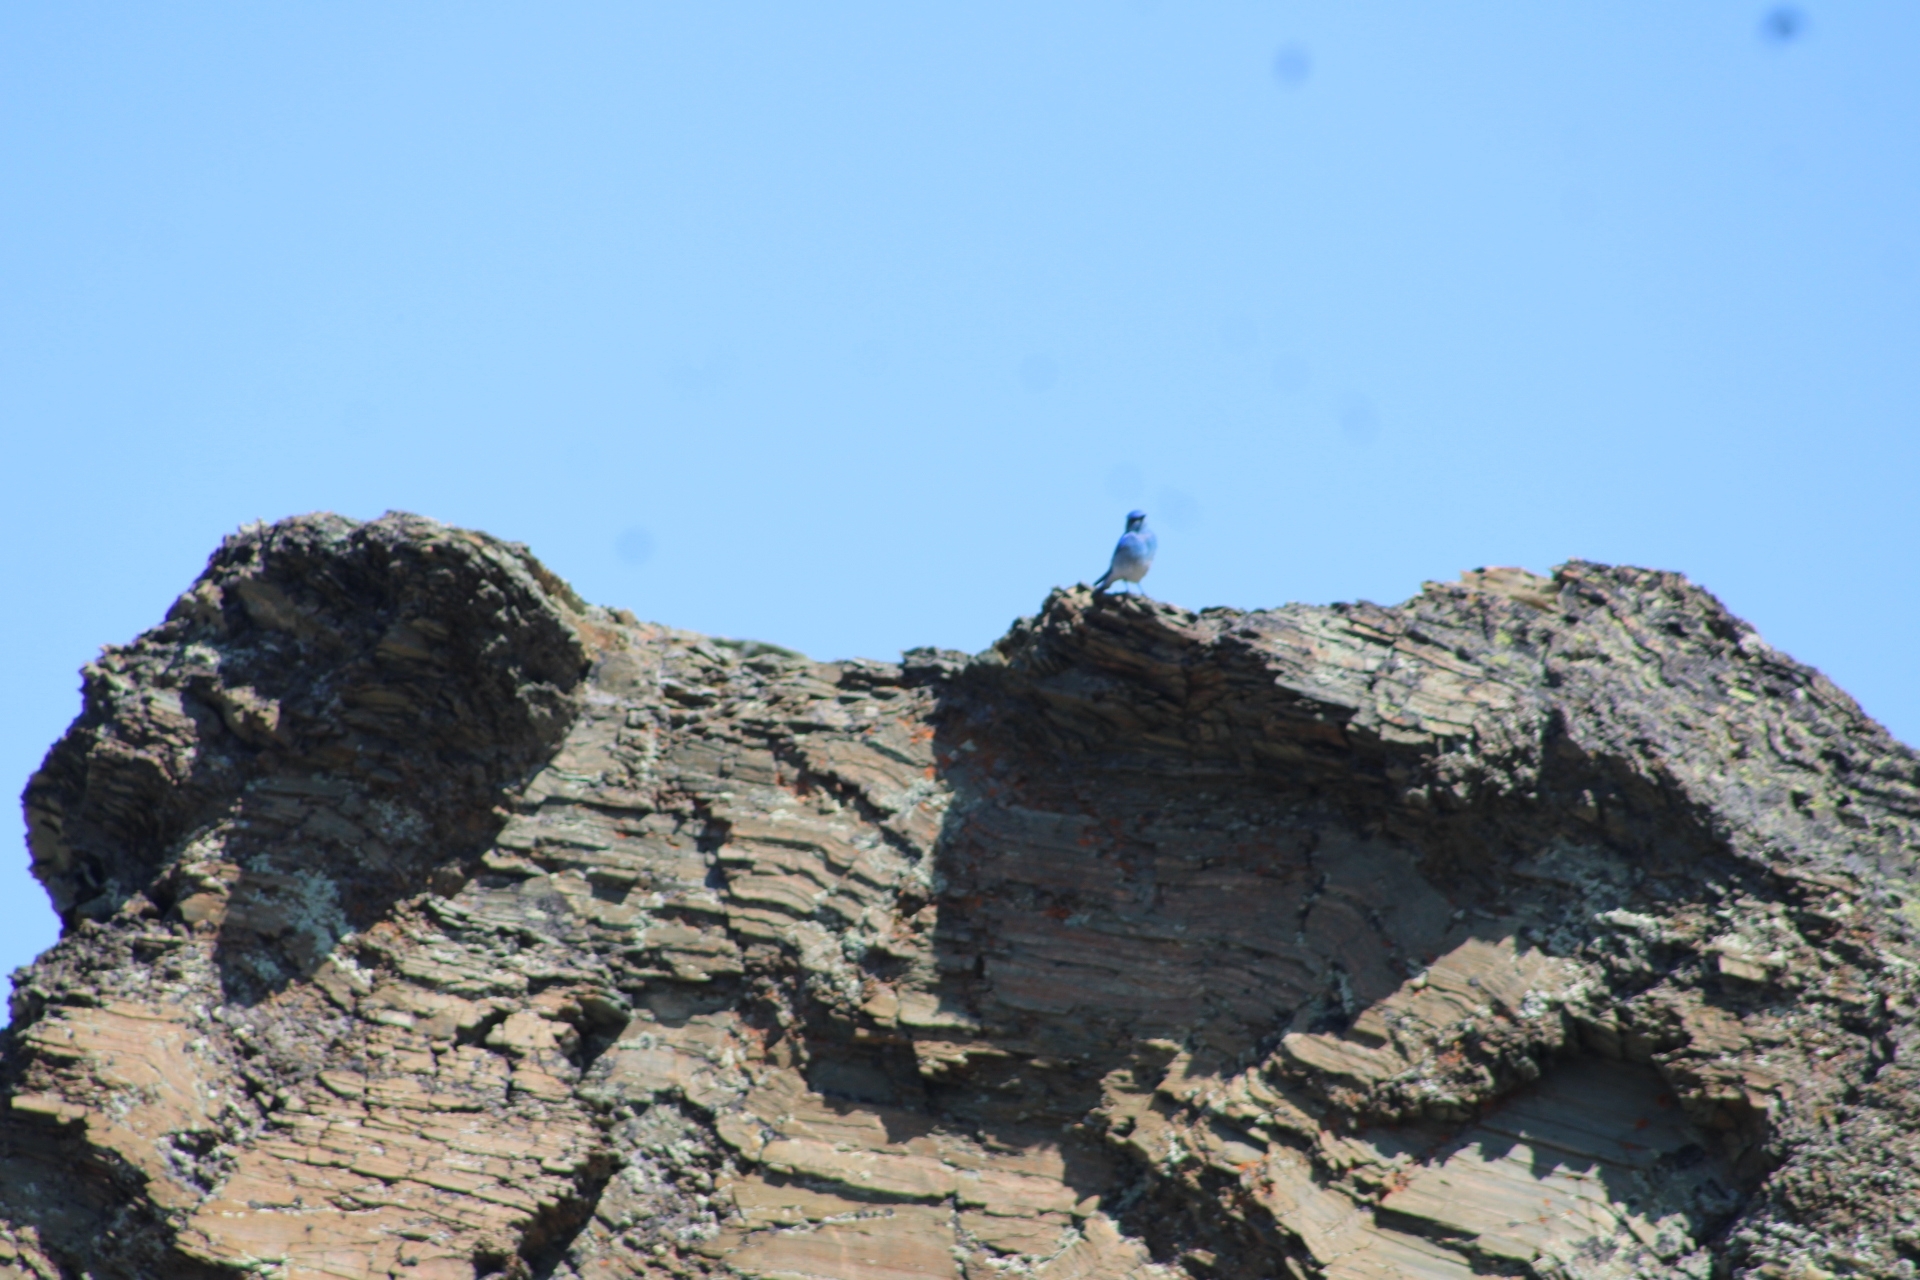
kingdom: Animalia
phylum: Chordata
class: Aves
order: Passeriformes
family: Turdidae
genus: Sialia
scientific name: Sialia currucoides
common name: Mountain bluebird
